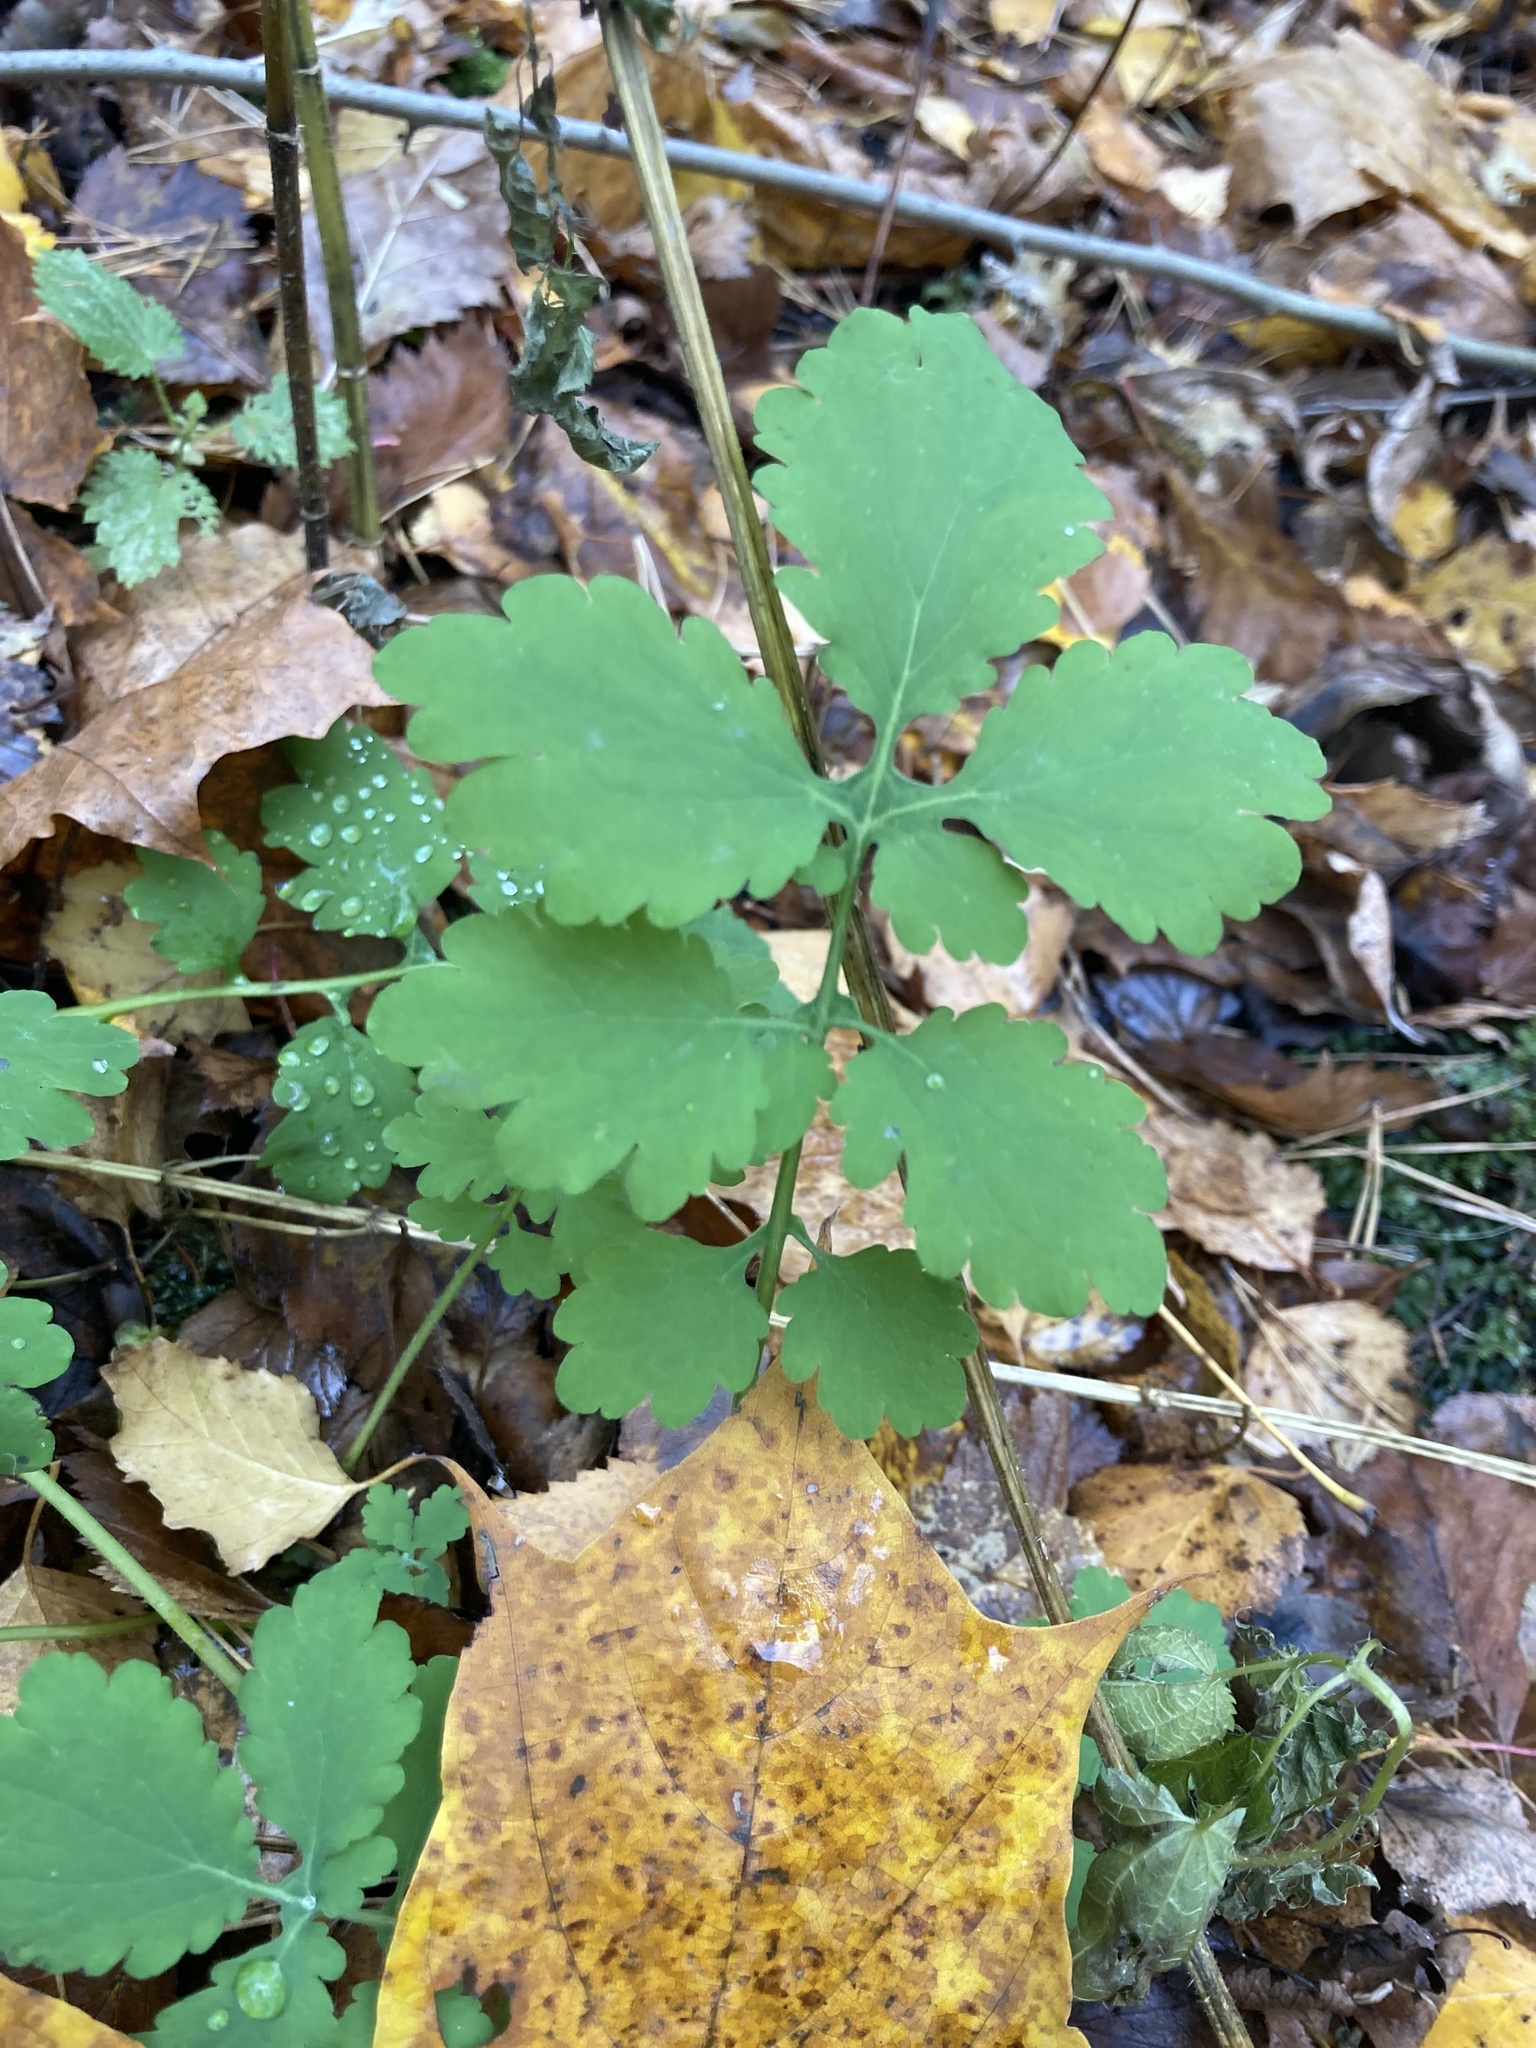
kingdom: Plantae
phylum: Tracheophyta
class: Magnoliopsida
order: Ranunculales
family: Papaveraceae
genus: Chelidonium
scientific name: Chelidonium majus
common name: Greater celandine
